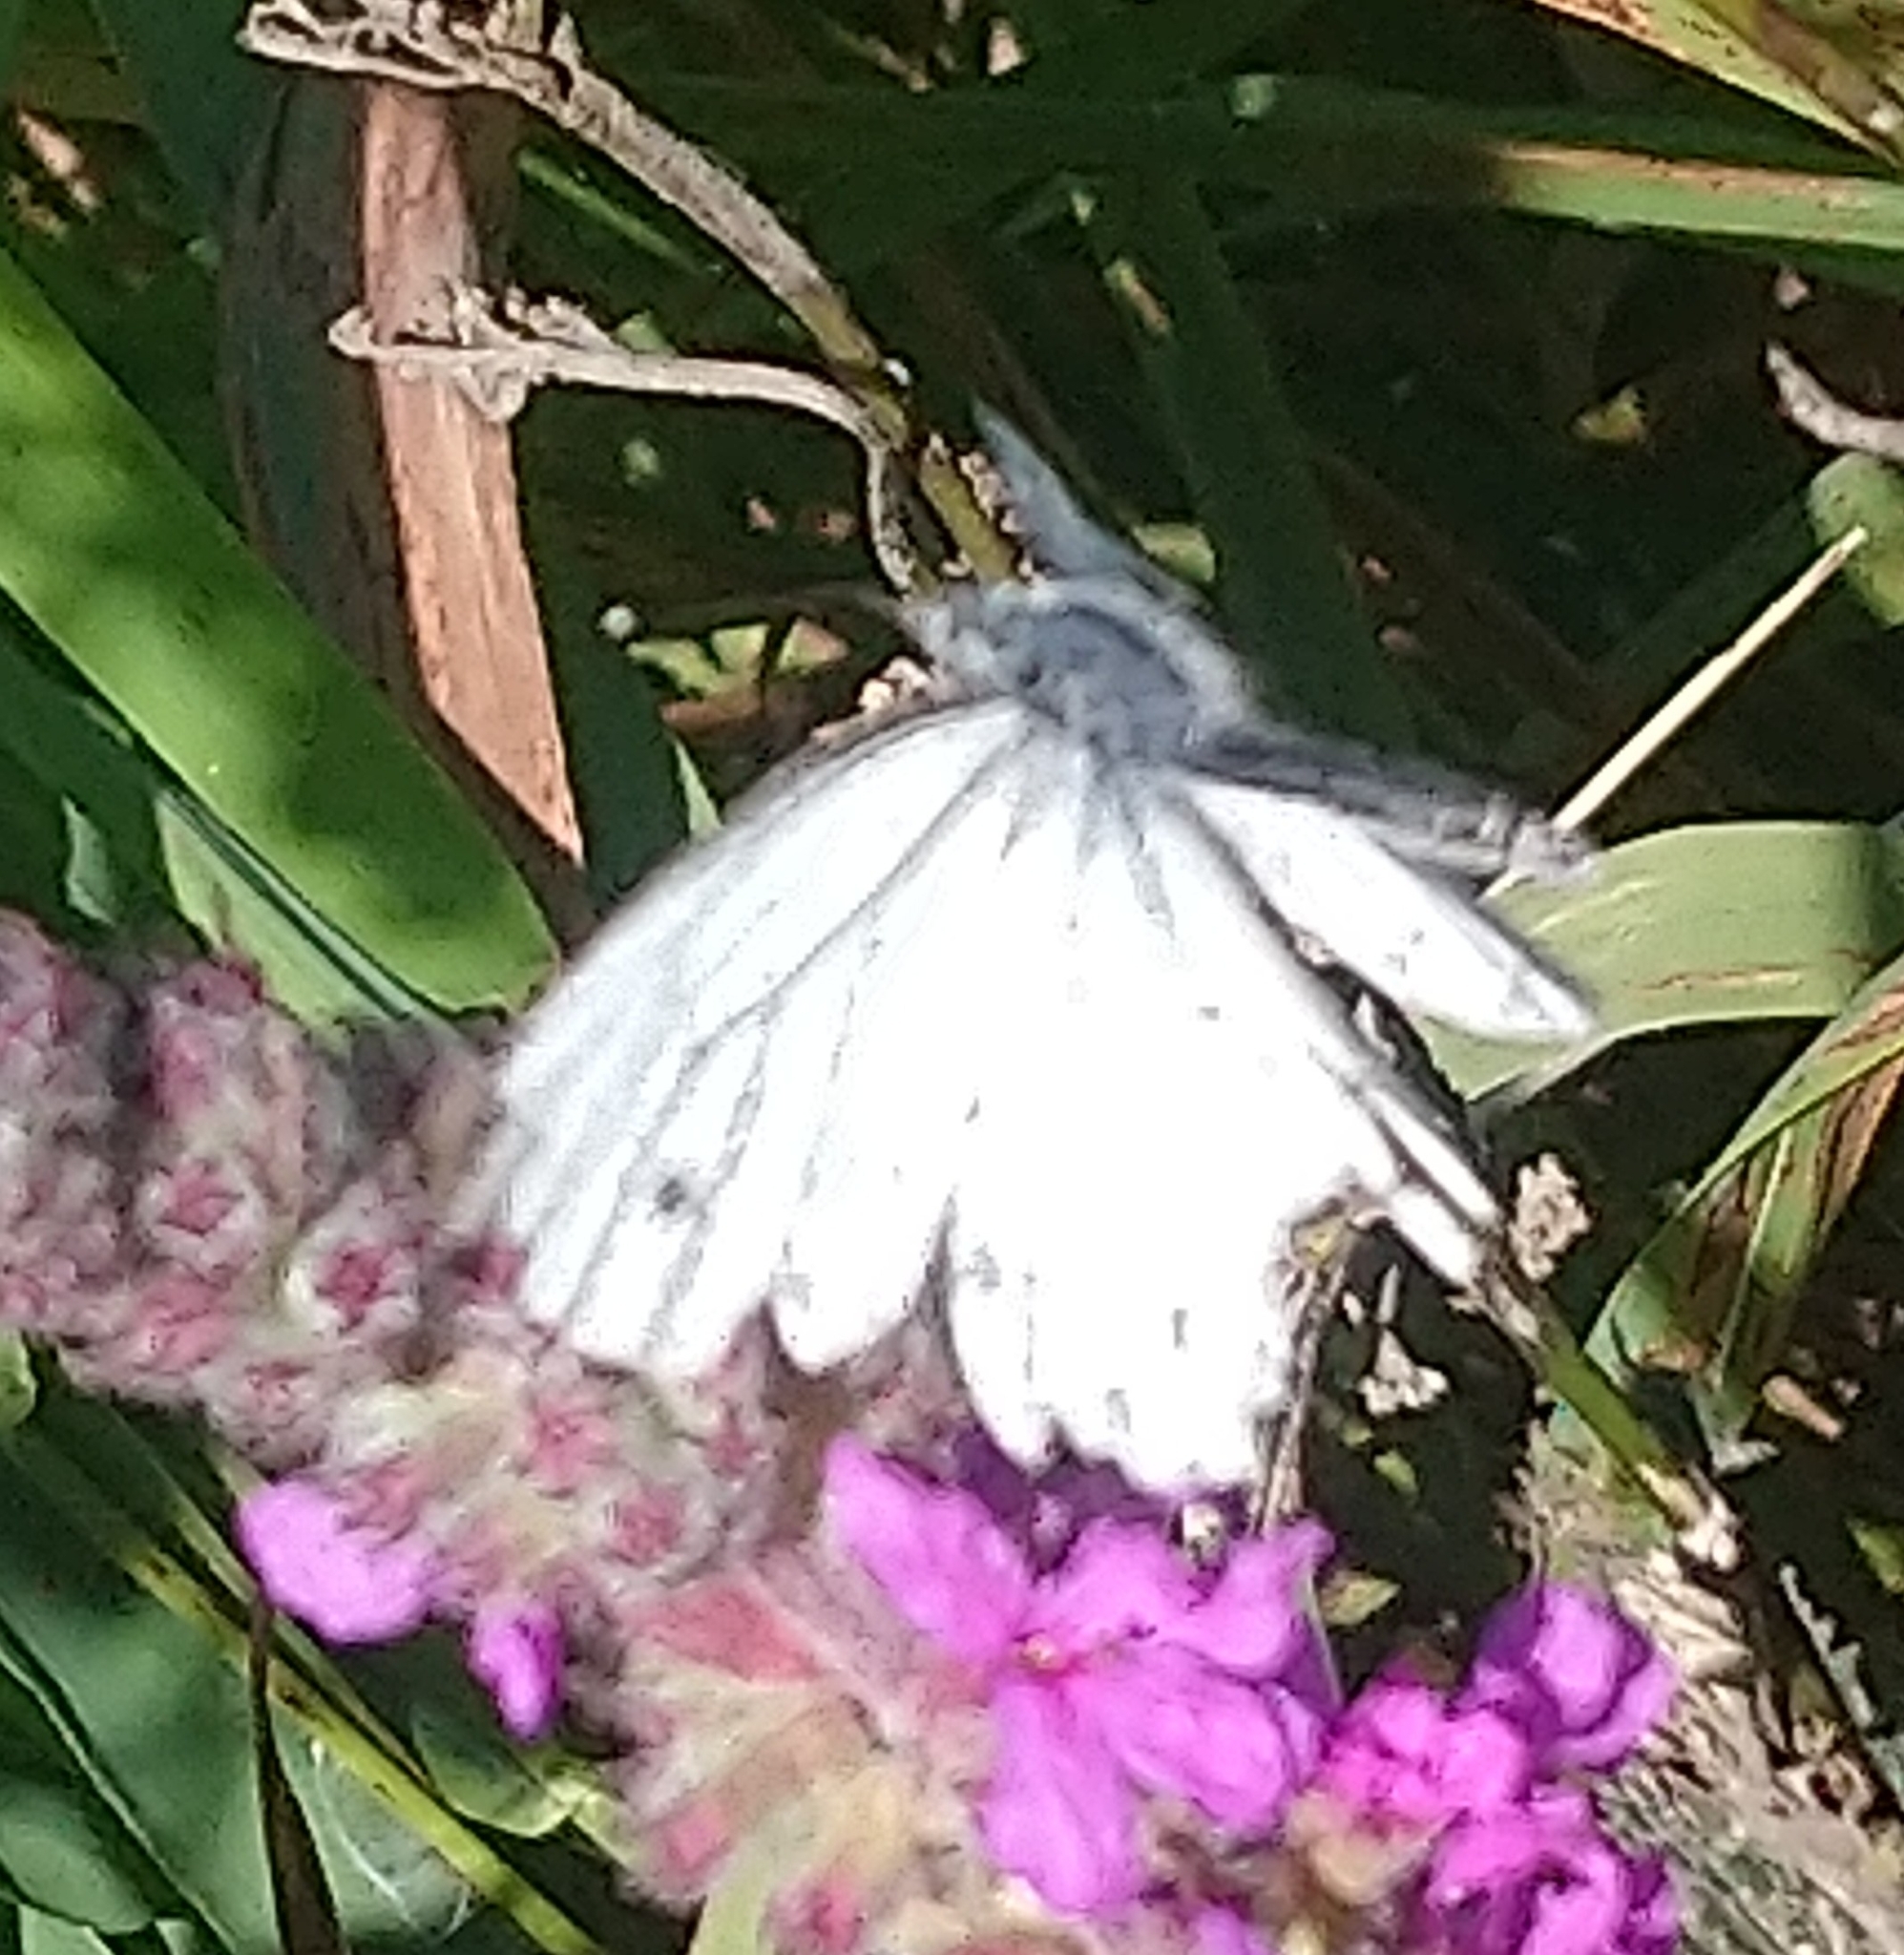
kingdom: Animalia
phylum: Arthropoda
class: Insecta
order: Lepidoptera
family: Pieridae
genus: Pieris
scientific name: Pieris napi
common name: Green-veined white
